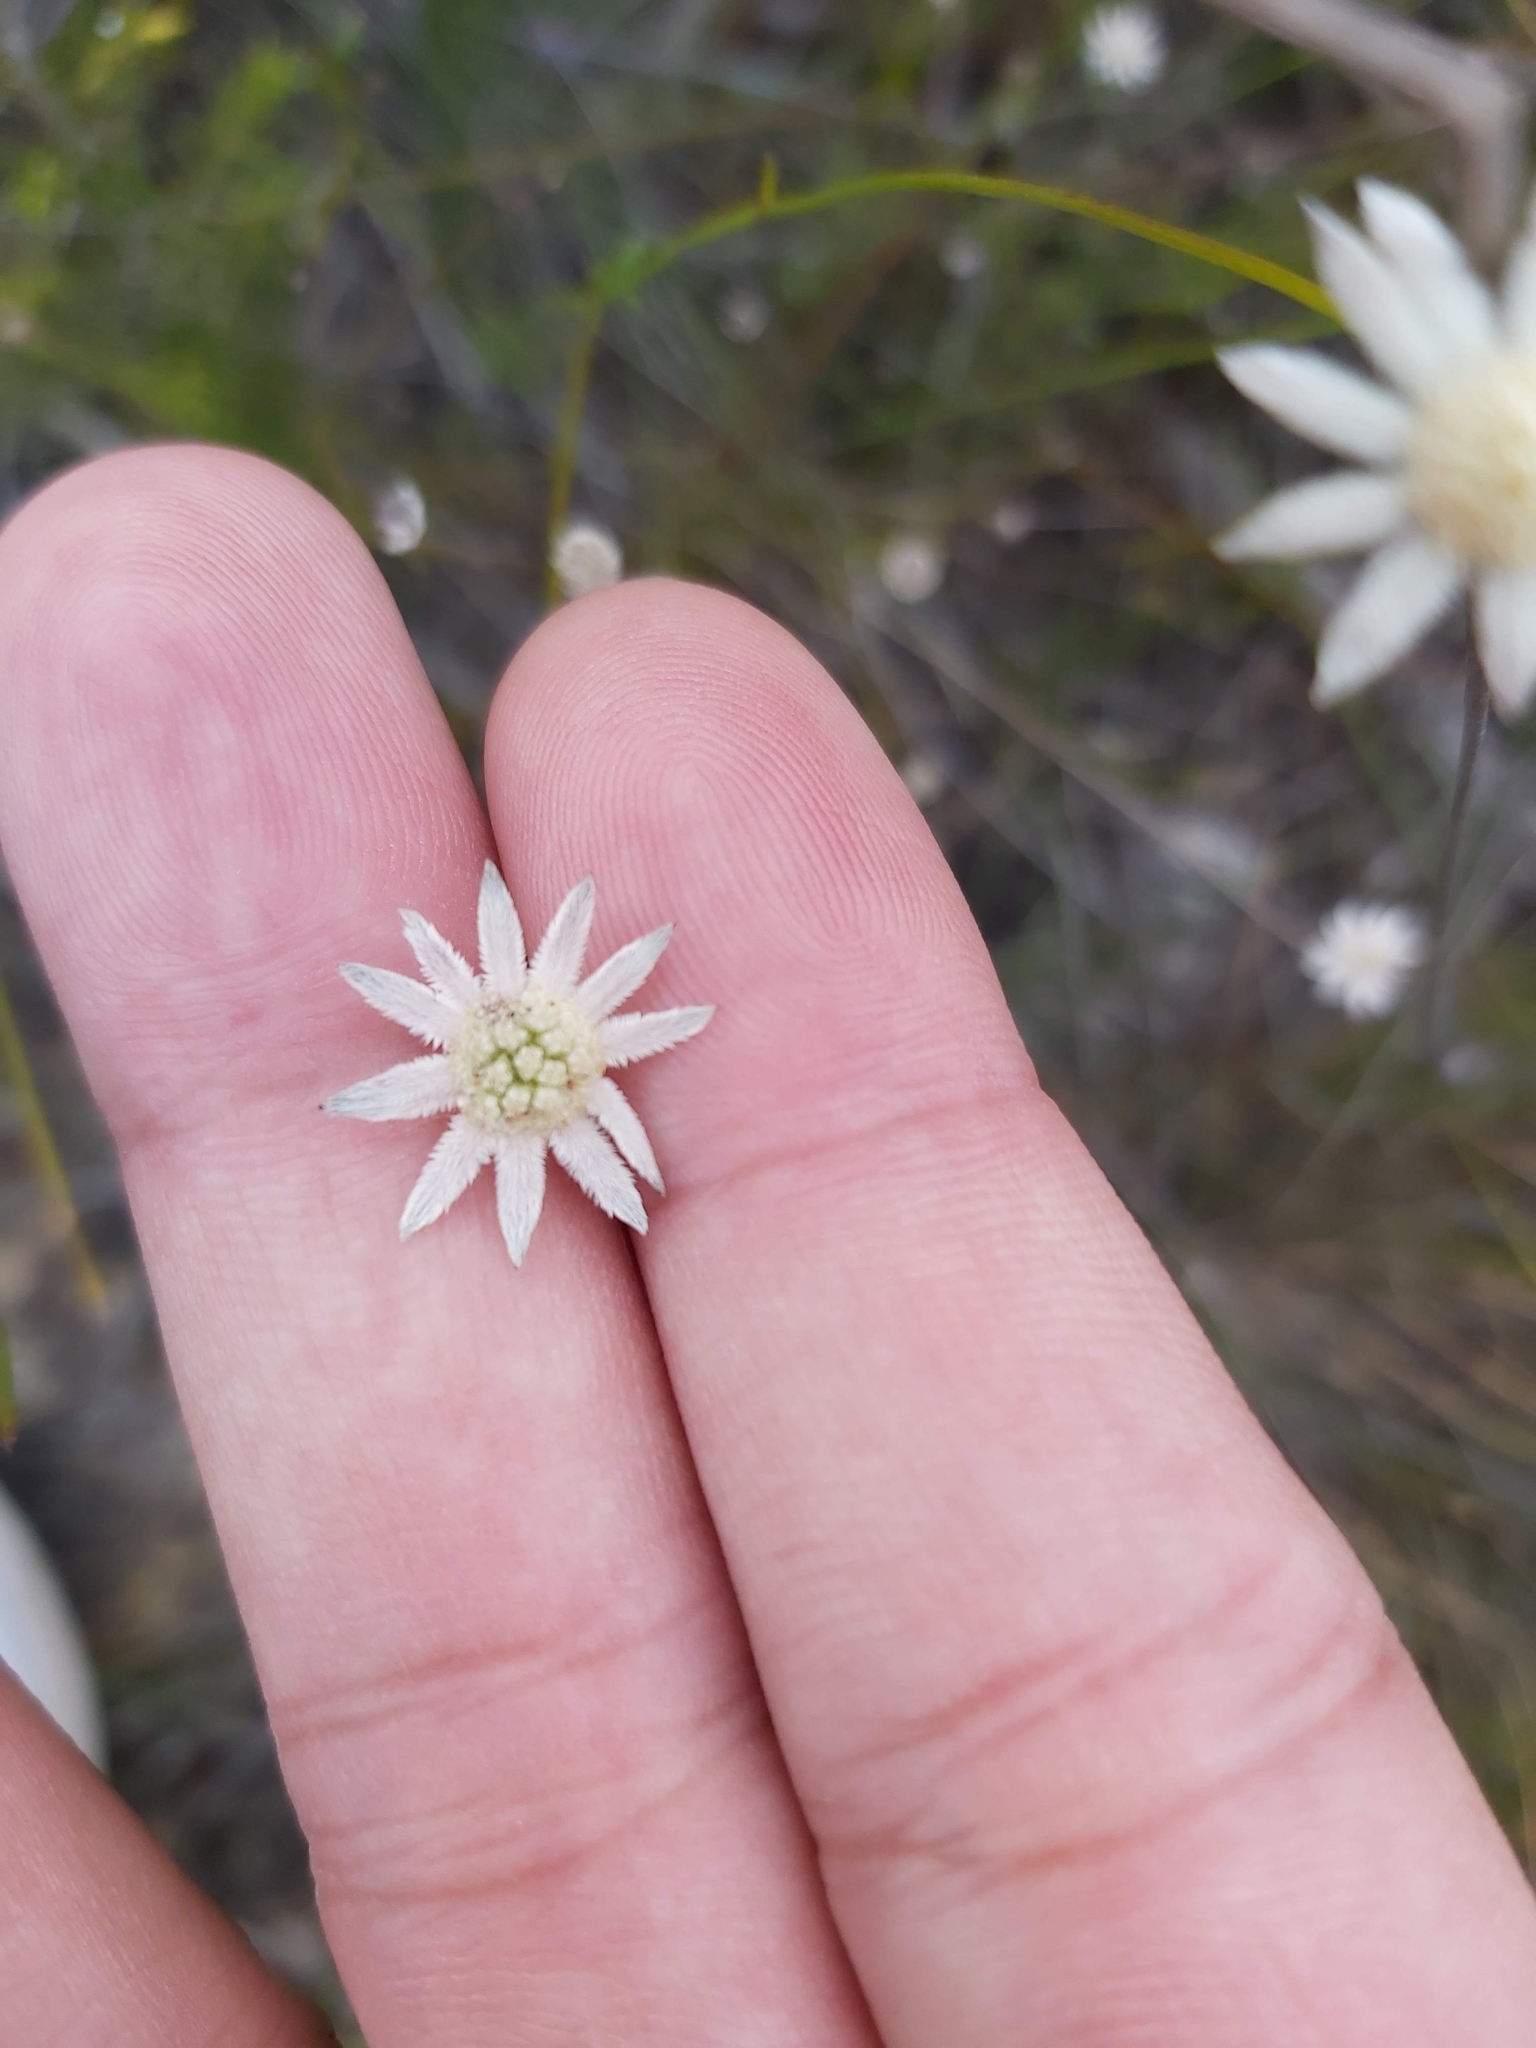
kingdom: Plantae
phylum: Tracheophyta
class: Magnoliopsida
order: Apiales
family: Apiaceae
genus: Actinotus
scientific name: Actinotus minor
